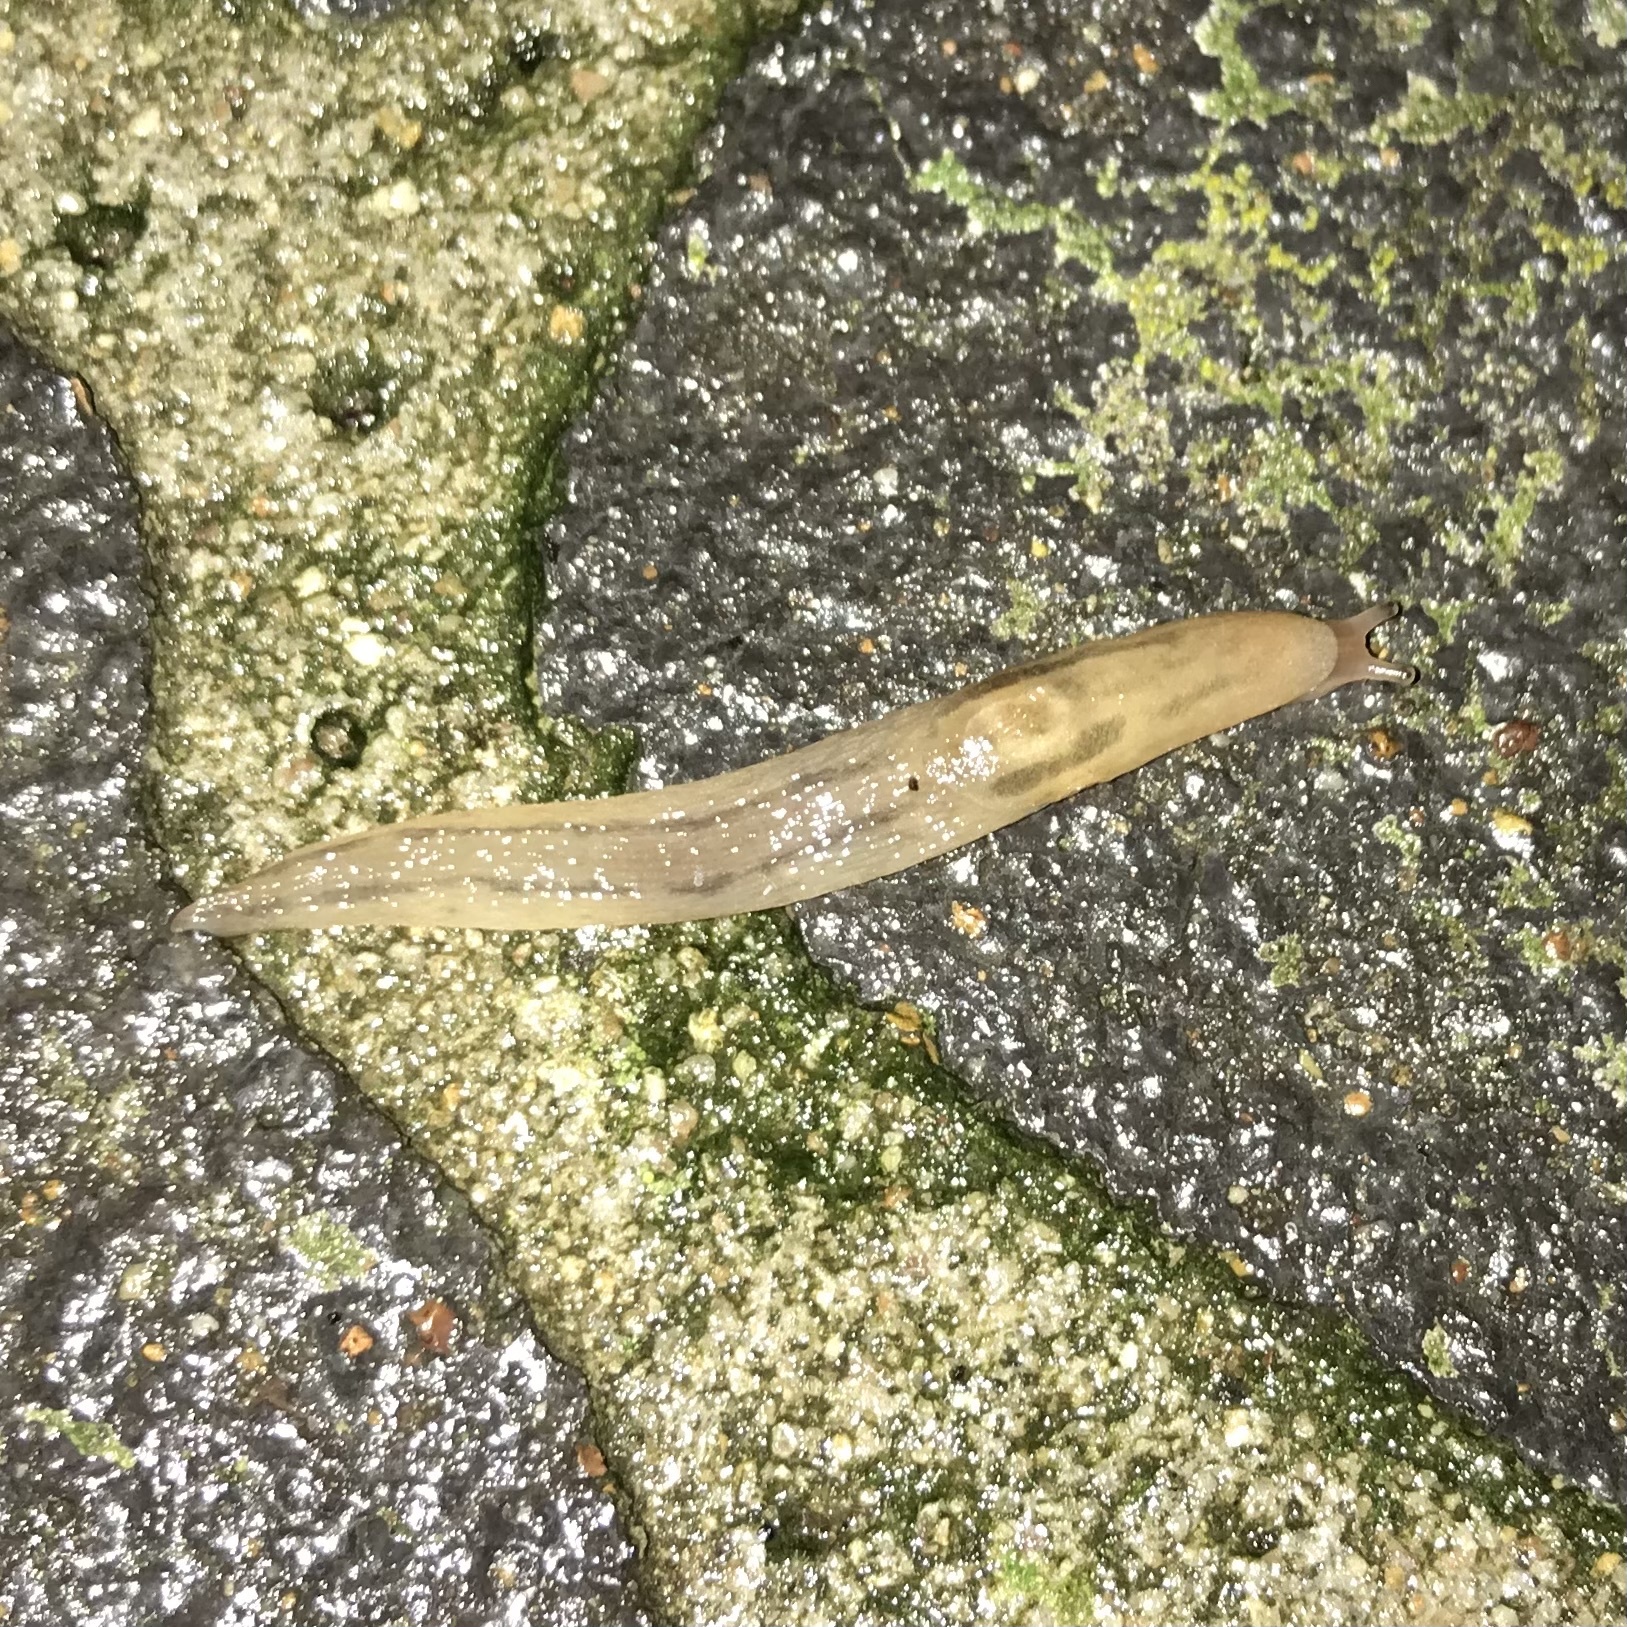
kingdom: Animalia
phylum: Mollusca
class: Gastropoda
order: Stylommatophora
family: Limacidae
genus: Ambigolimax
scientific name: Ambigolimax
